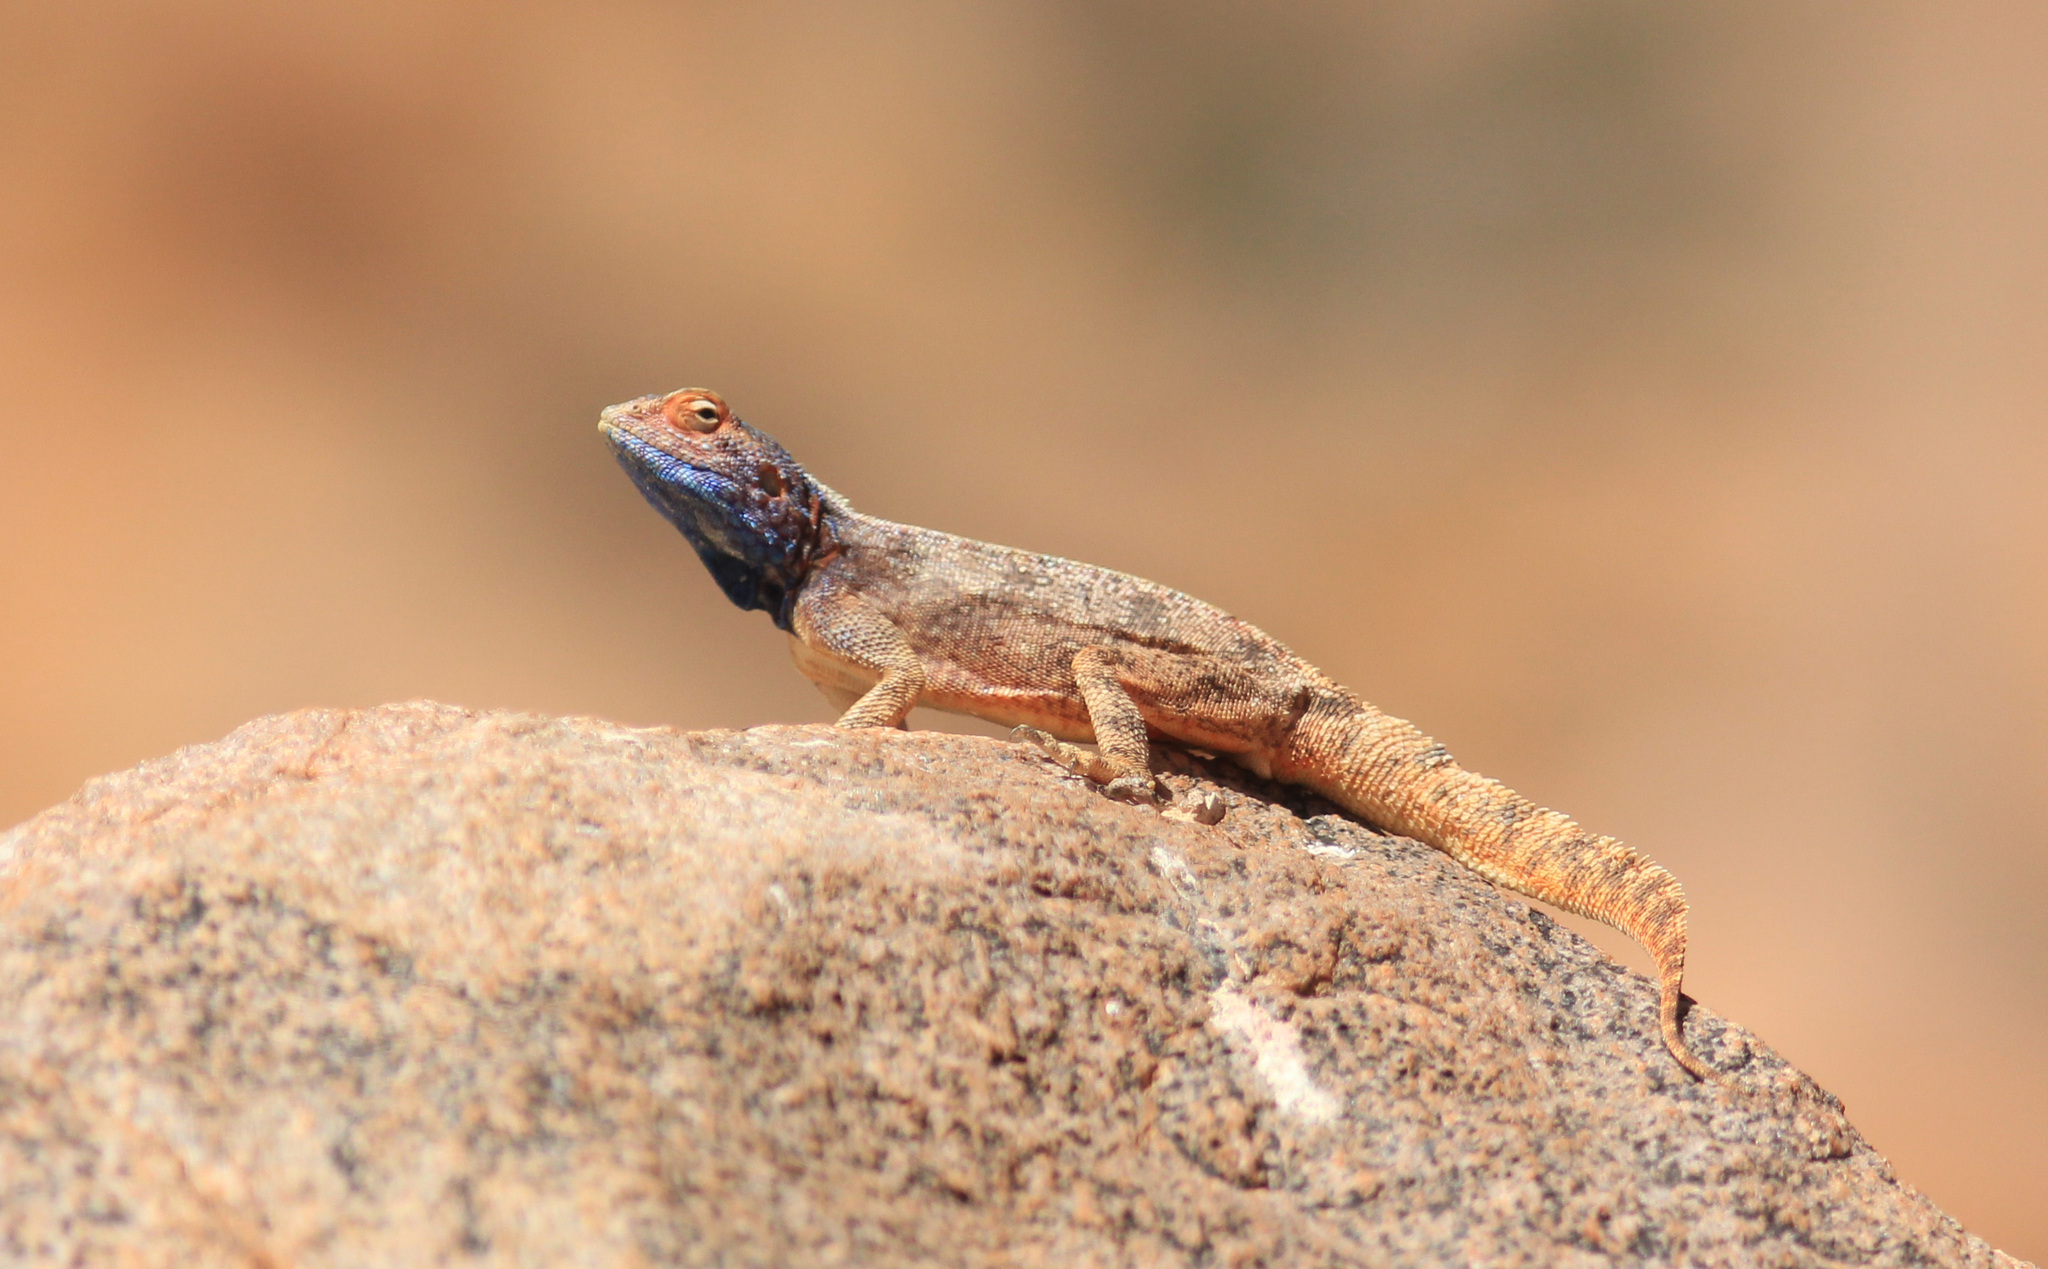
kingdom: Animalia
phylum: Chordata
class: Squamata
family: Agamidae
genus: Agama
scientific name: Agama knobeli
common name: Southern rock agama
